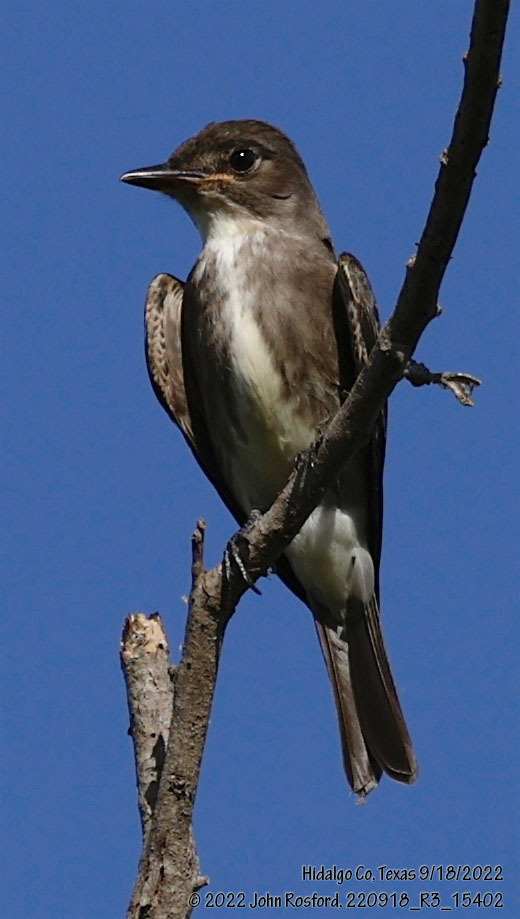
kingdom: Animalia
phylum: Chordata
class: Aves
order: Passeriformes
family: Tyrannidae
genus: Contopus
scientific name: Contopus cooperi
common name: Olive-sided flycatcher
